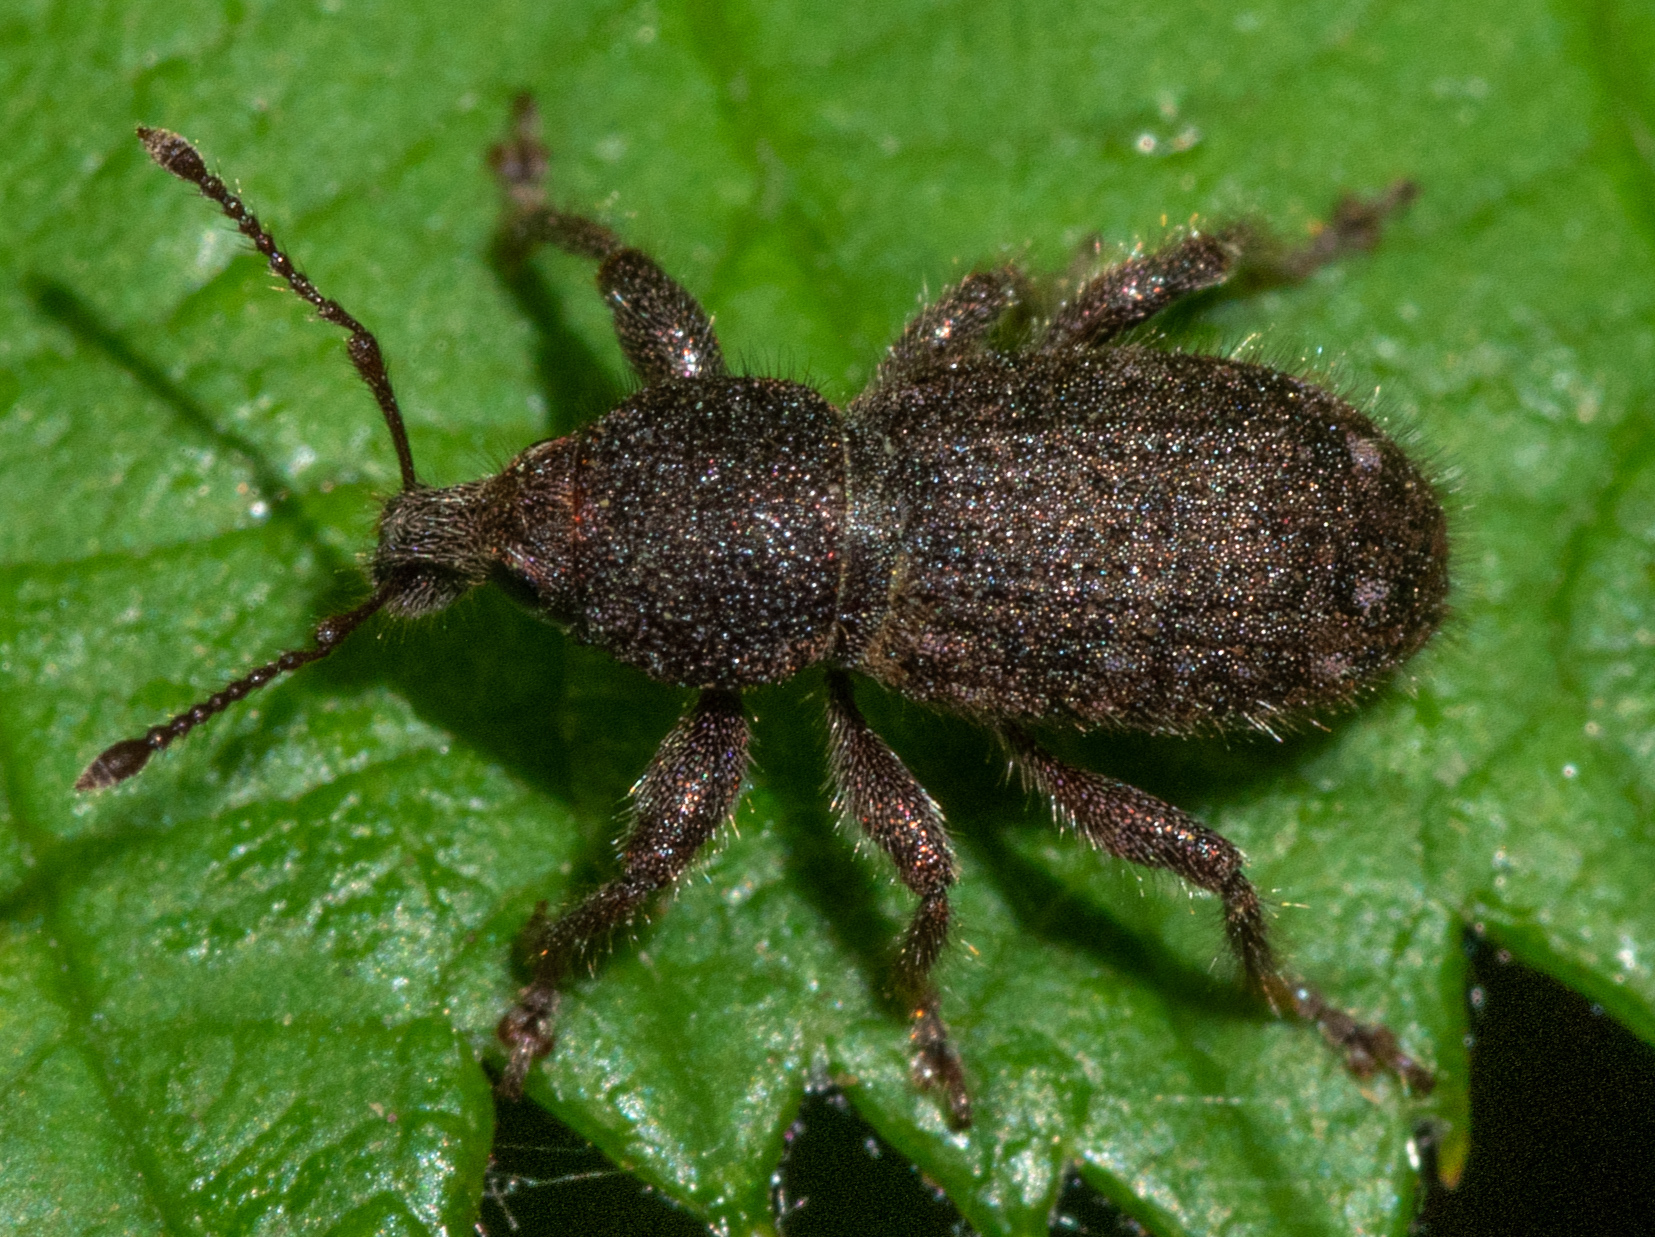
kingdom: Animalia
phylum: Arthropoda
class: Insecta
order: Coleoptera
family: Curculionidae
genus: Dyslobus
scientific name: Dyslobus ursinus
